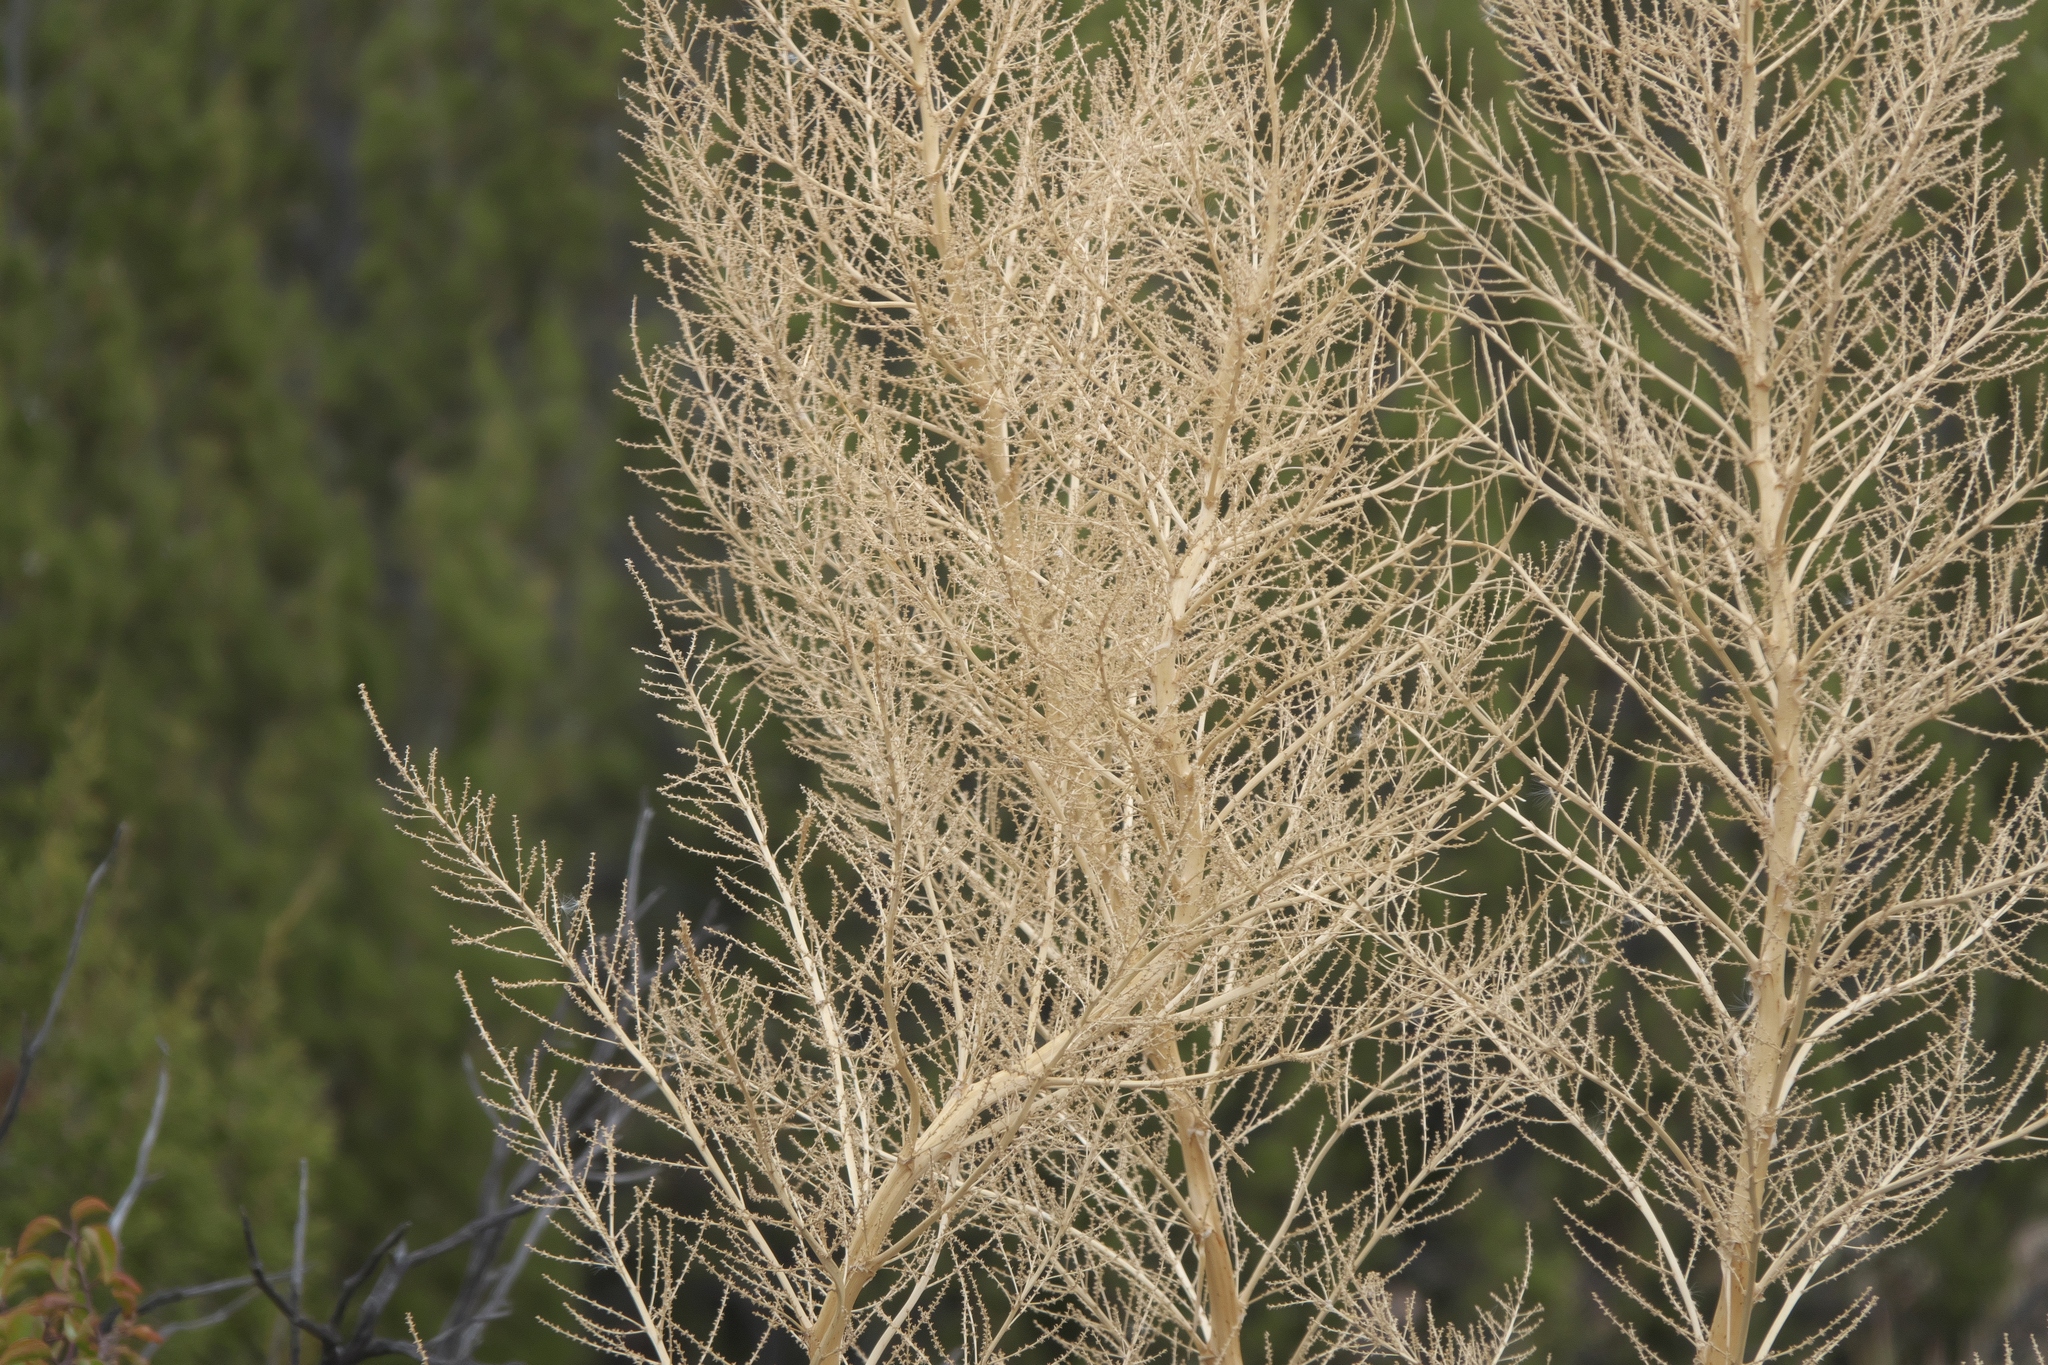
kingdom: Plantae
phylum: Tracheophyta
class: Liliopsida
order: Asparagales
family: Asparagaceae
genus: Nolina
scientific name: Nolina bigelovii
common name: Bigelow bear-grass
